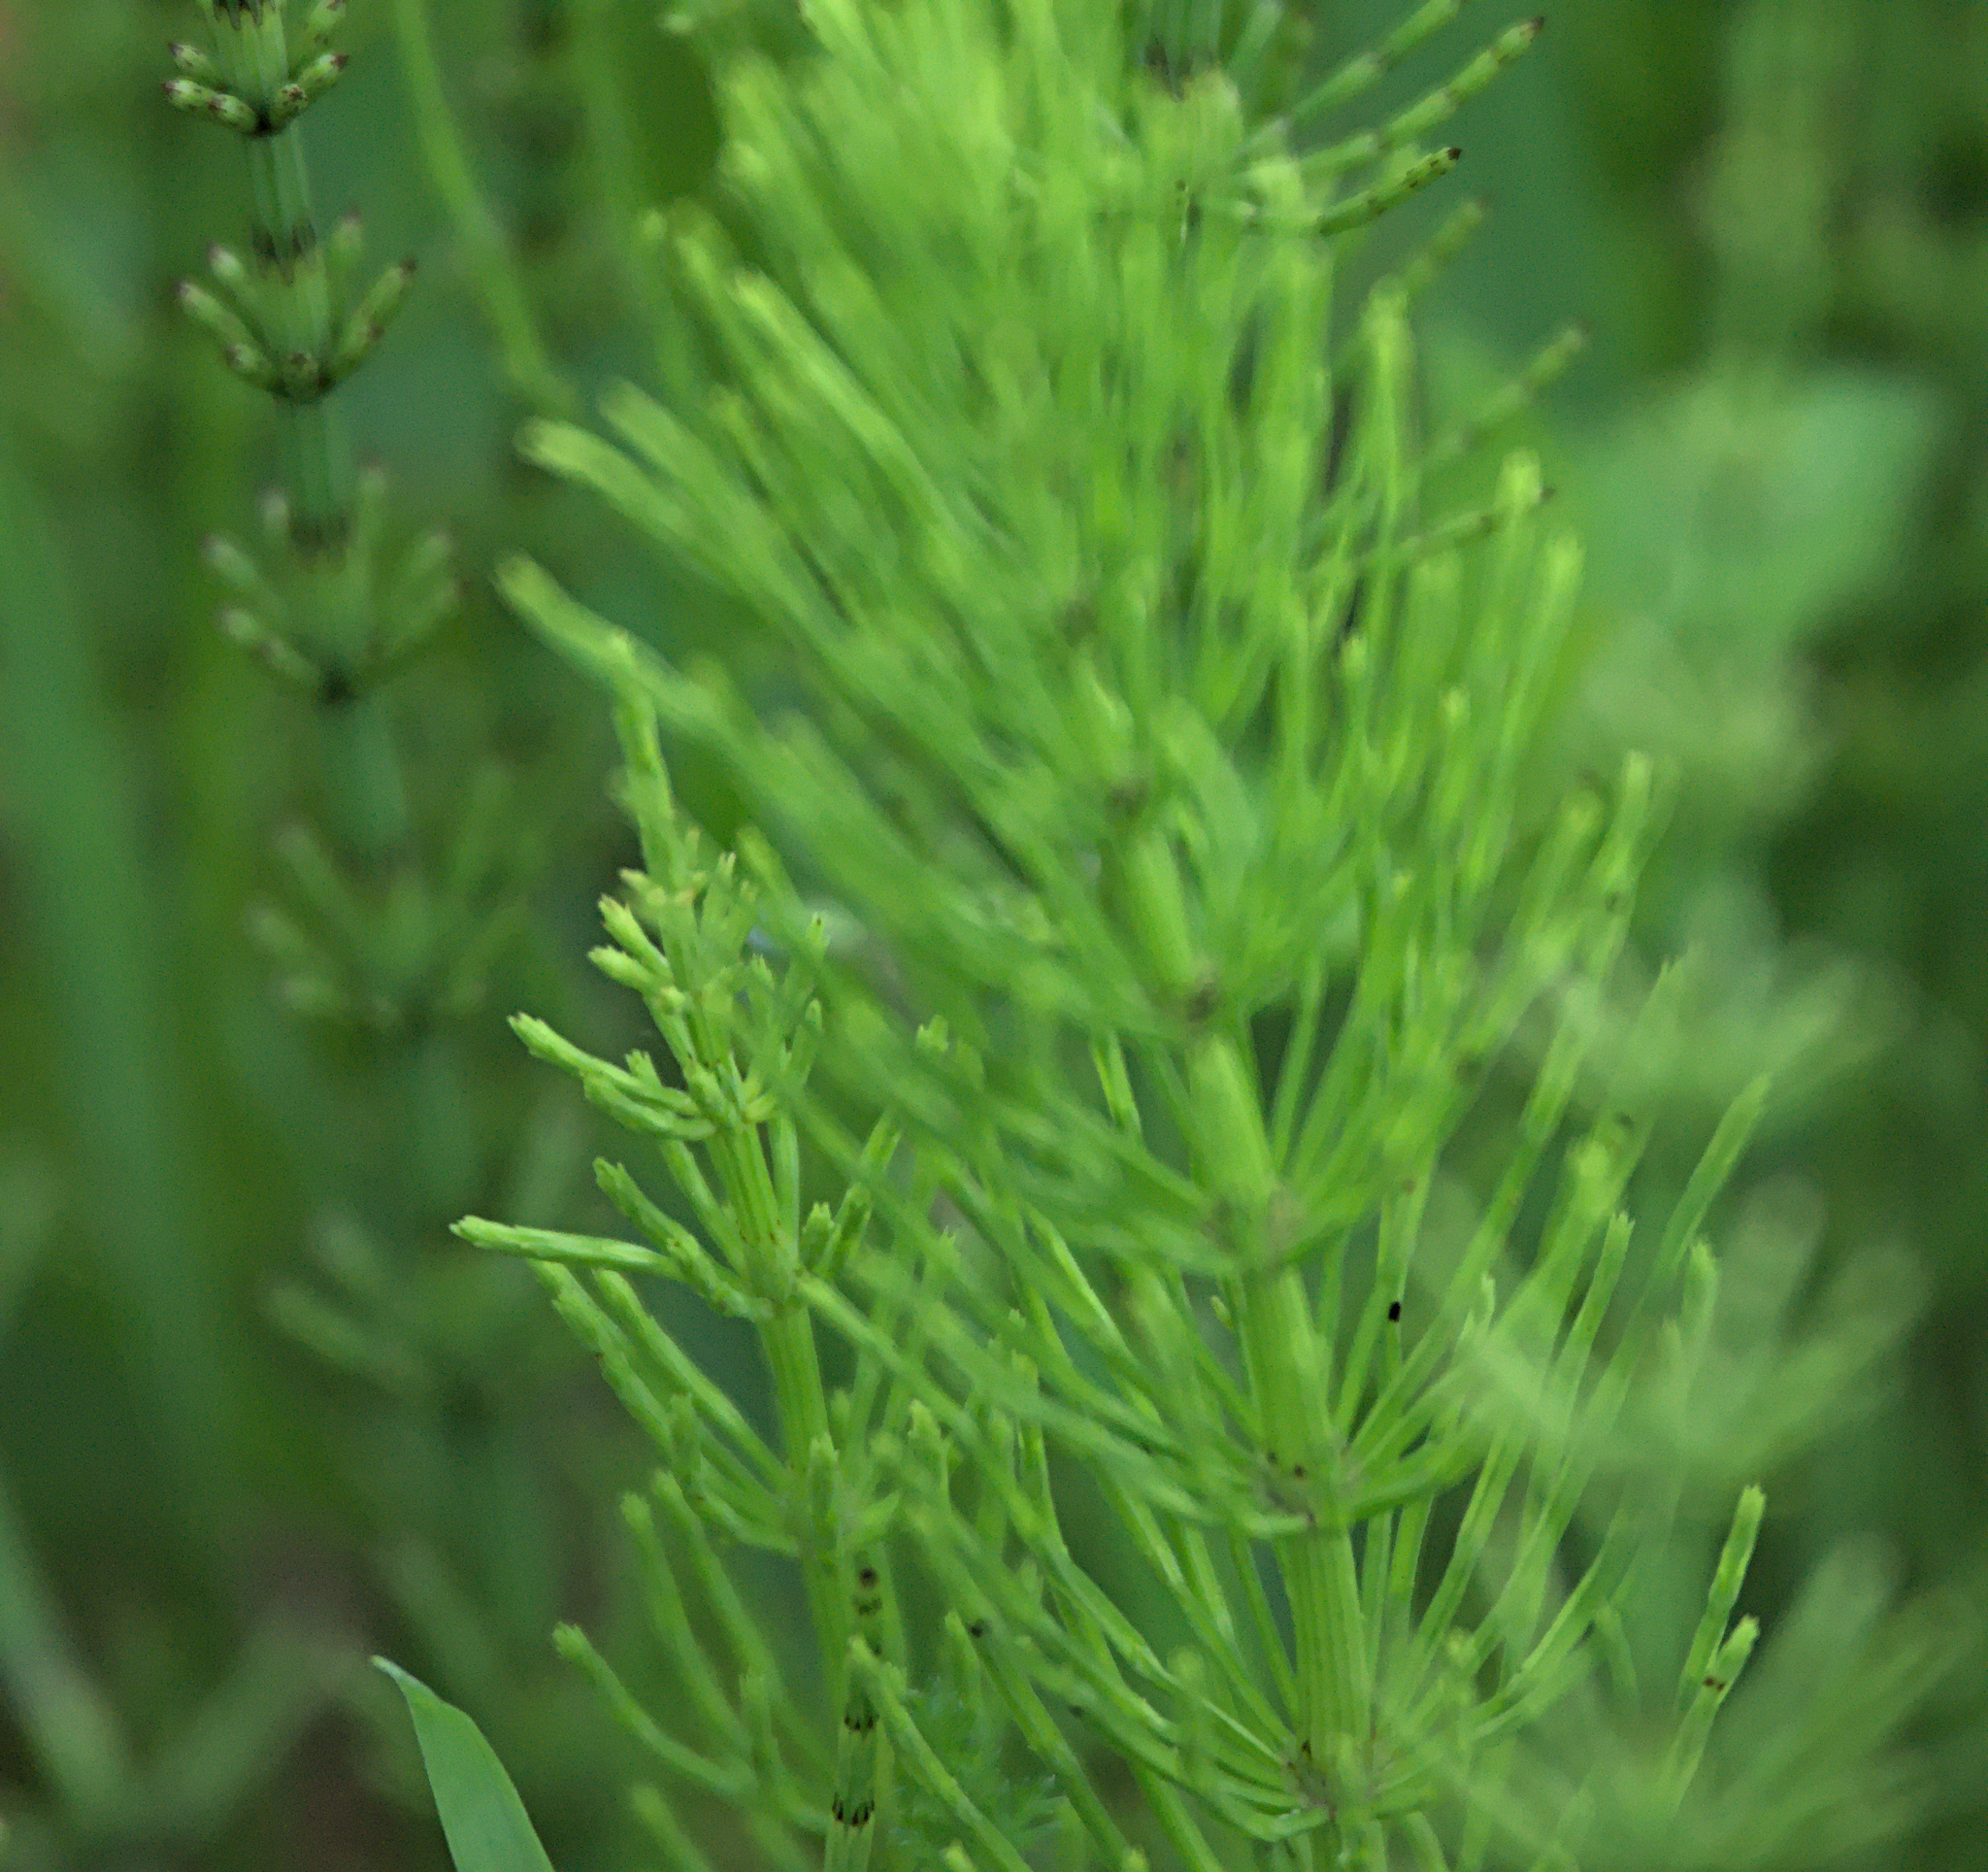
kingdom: Plantae
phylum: Tracheophyta
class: Polypodiopsida
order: Equisetales
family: Equisetaceae
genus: Equisetum
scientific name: Equisetum palustre
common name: Marsh horsetail
